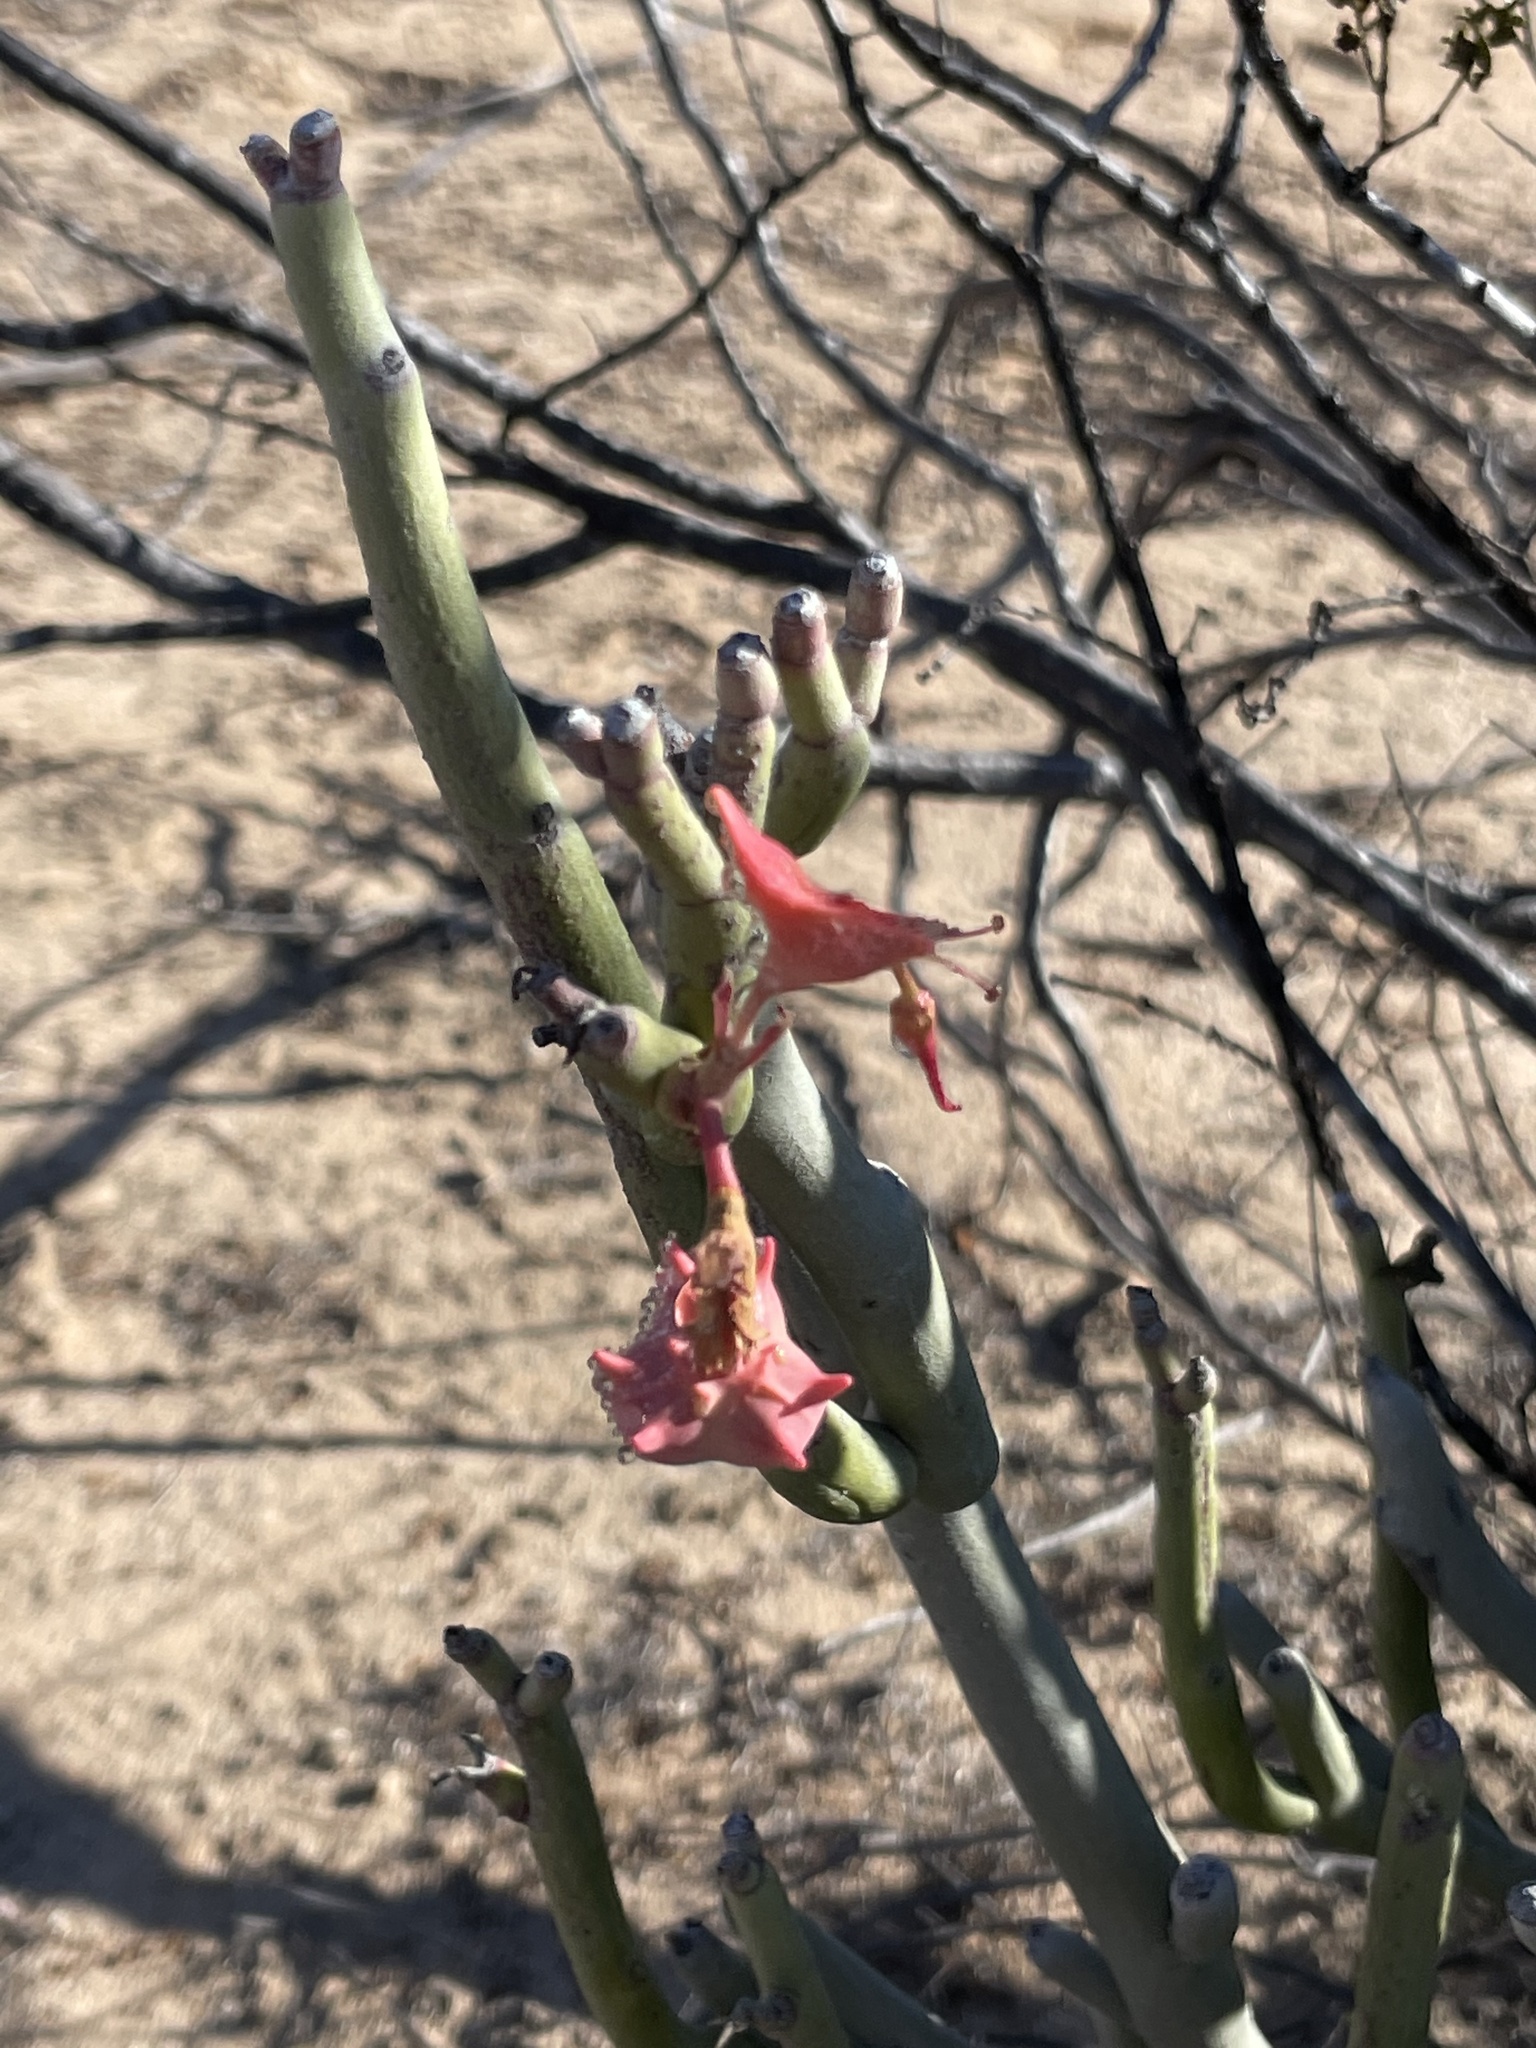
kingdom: Plantae
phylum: Tracheophyta
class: Magnoliopsida
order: Malpighiales
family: Euphorbiaceae
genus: Euphorbia
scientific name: Euphorbia lomelii
